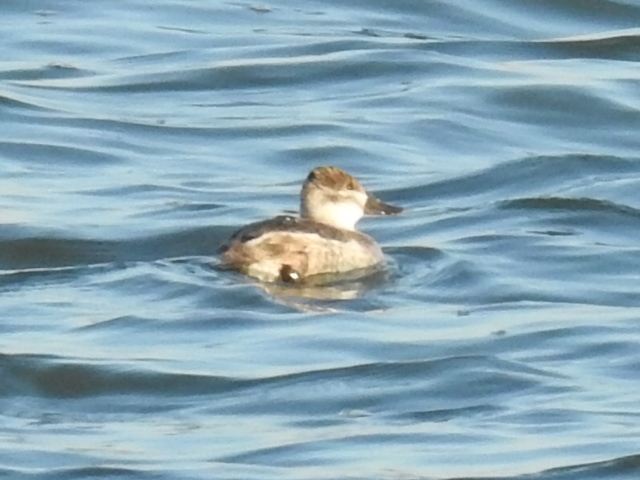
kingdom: Animalia
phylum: Chordata
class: Aves
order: Anseriformes
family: Anatidae
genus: Oxyura
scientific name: Oxyura jamaicensis
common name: Ruddy duck
